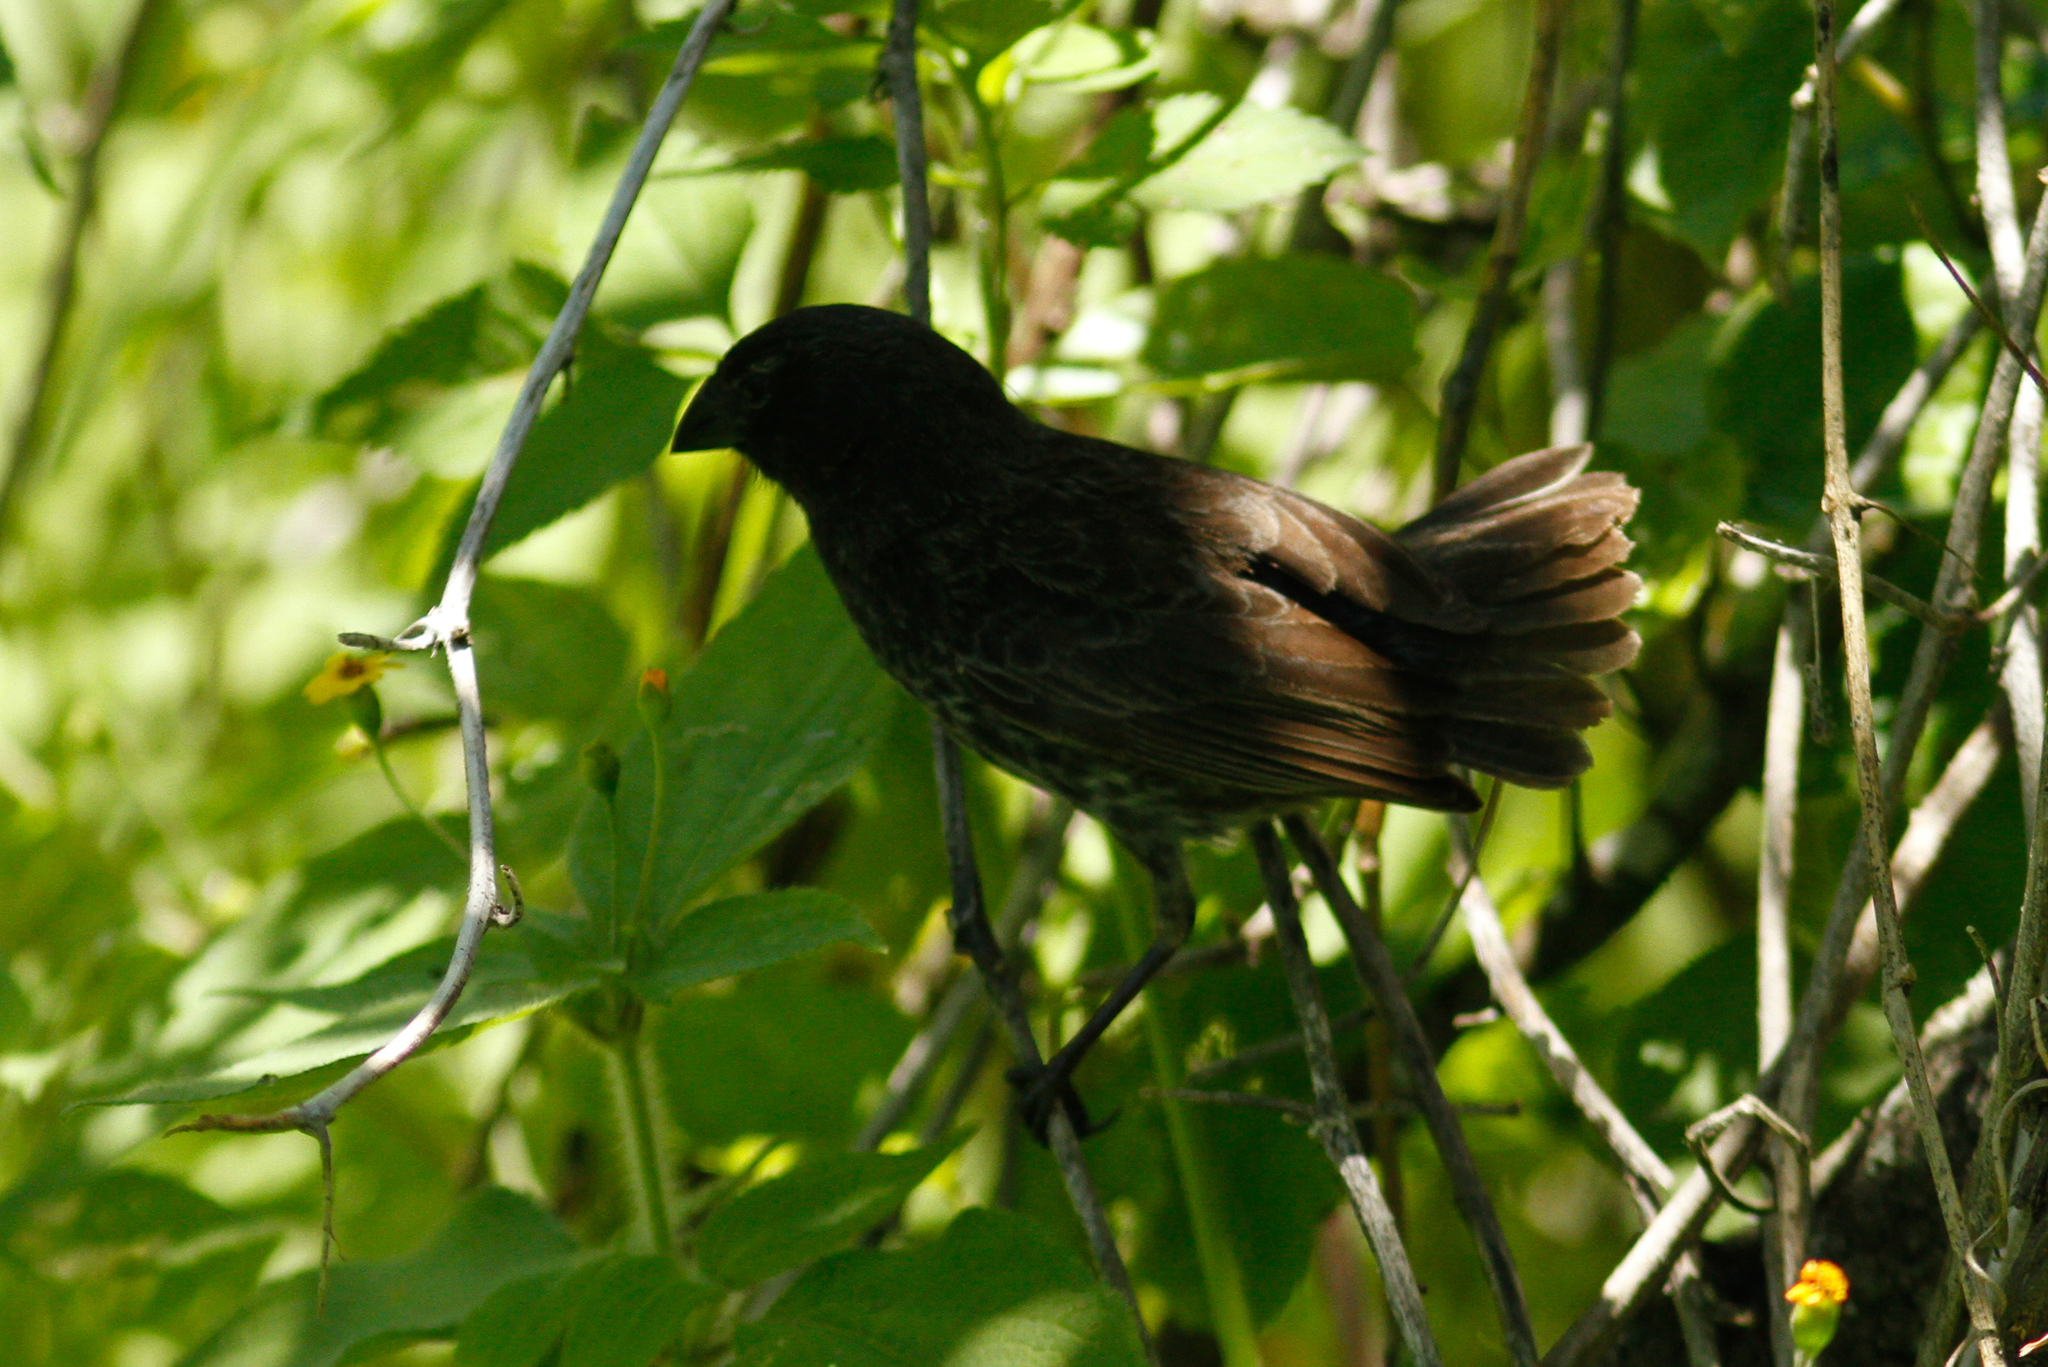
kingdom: Animalia
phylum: Chordata
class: Aves
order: Passeriformes
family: Thraupidae
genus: Geospiza
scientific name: Geospiza fuliginosa
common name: Small ground finch
